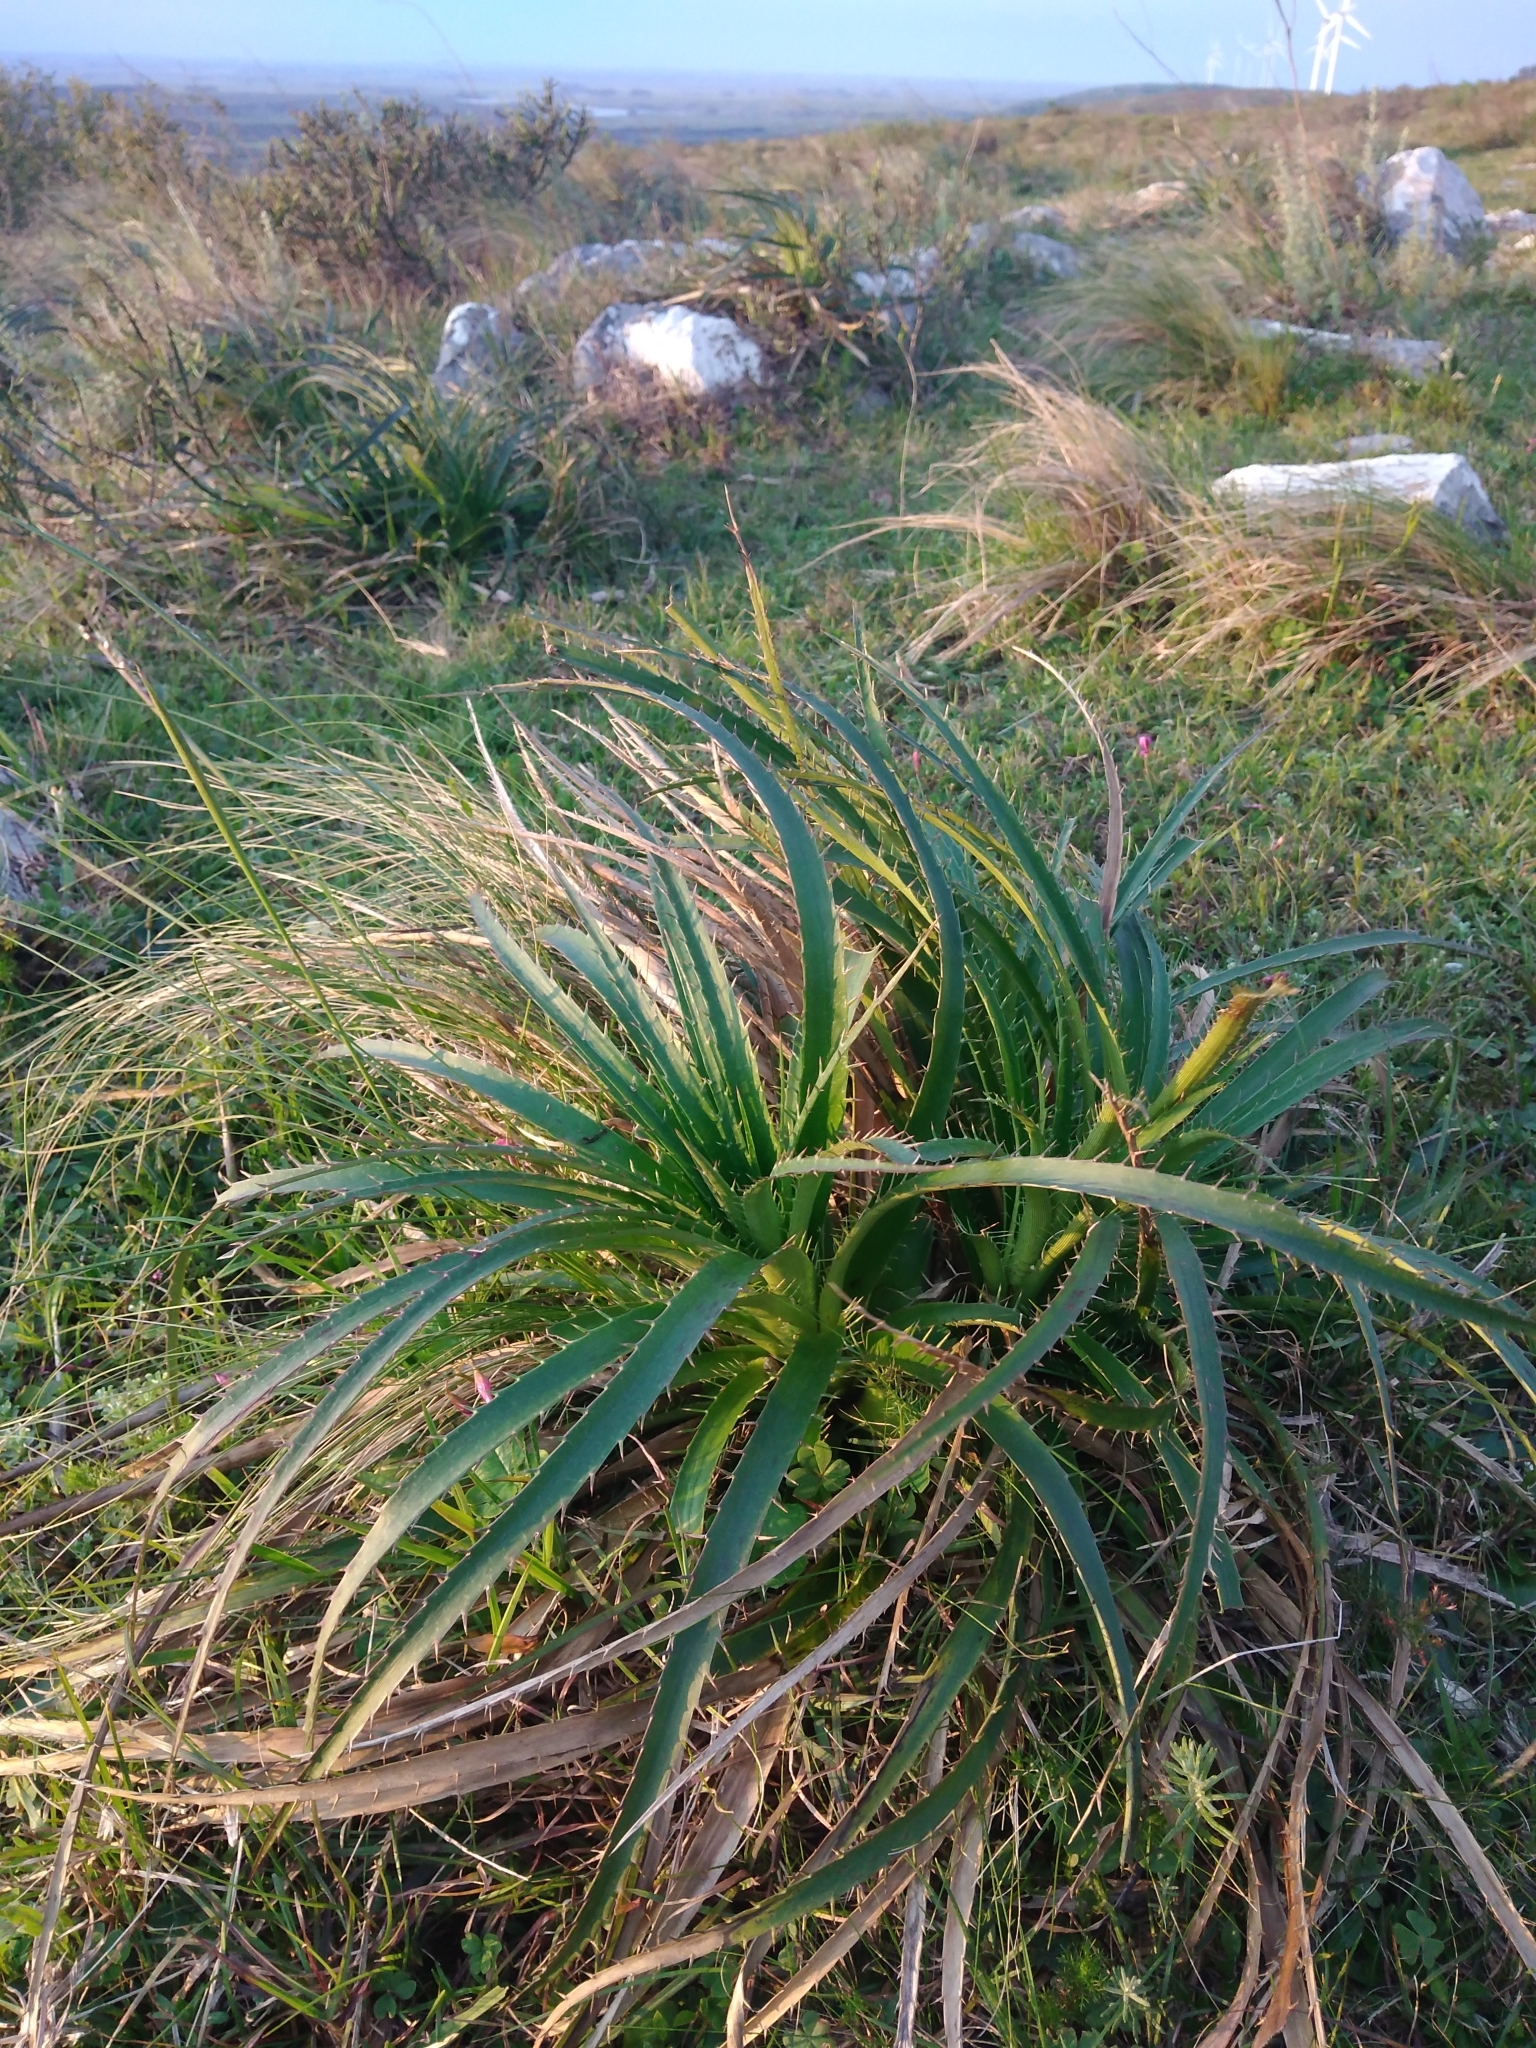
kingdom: Plantae
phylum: Tracheophyta
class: Magnoliopsida
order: Apiales
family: Apiaceae
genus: Eryngium
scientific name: Eryngium horridum
